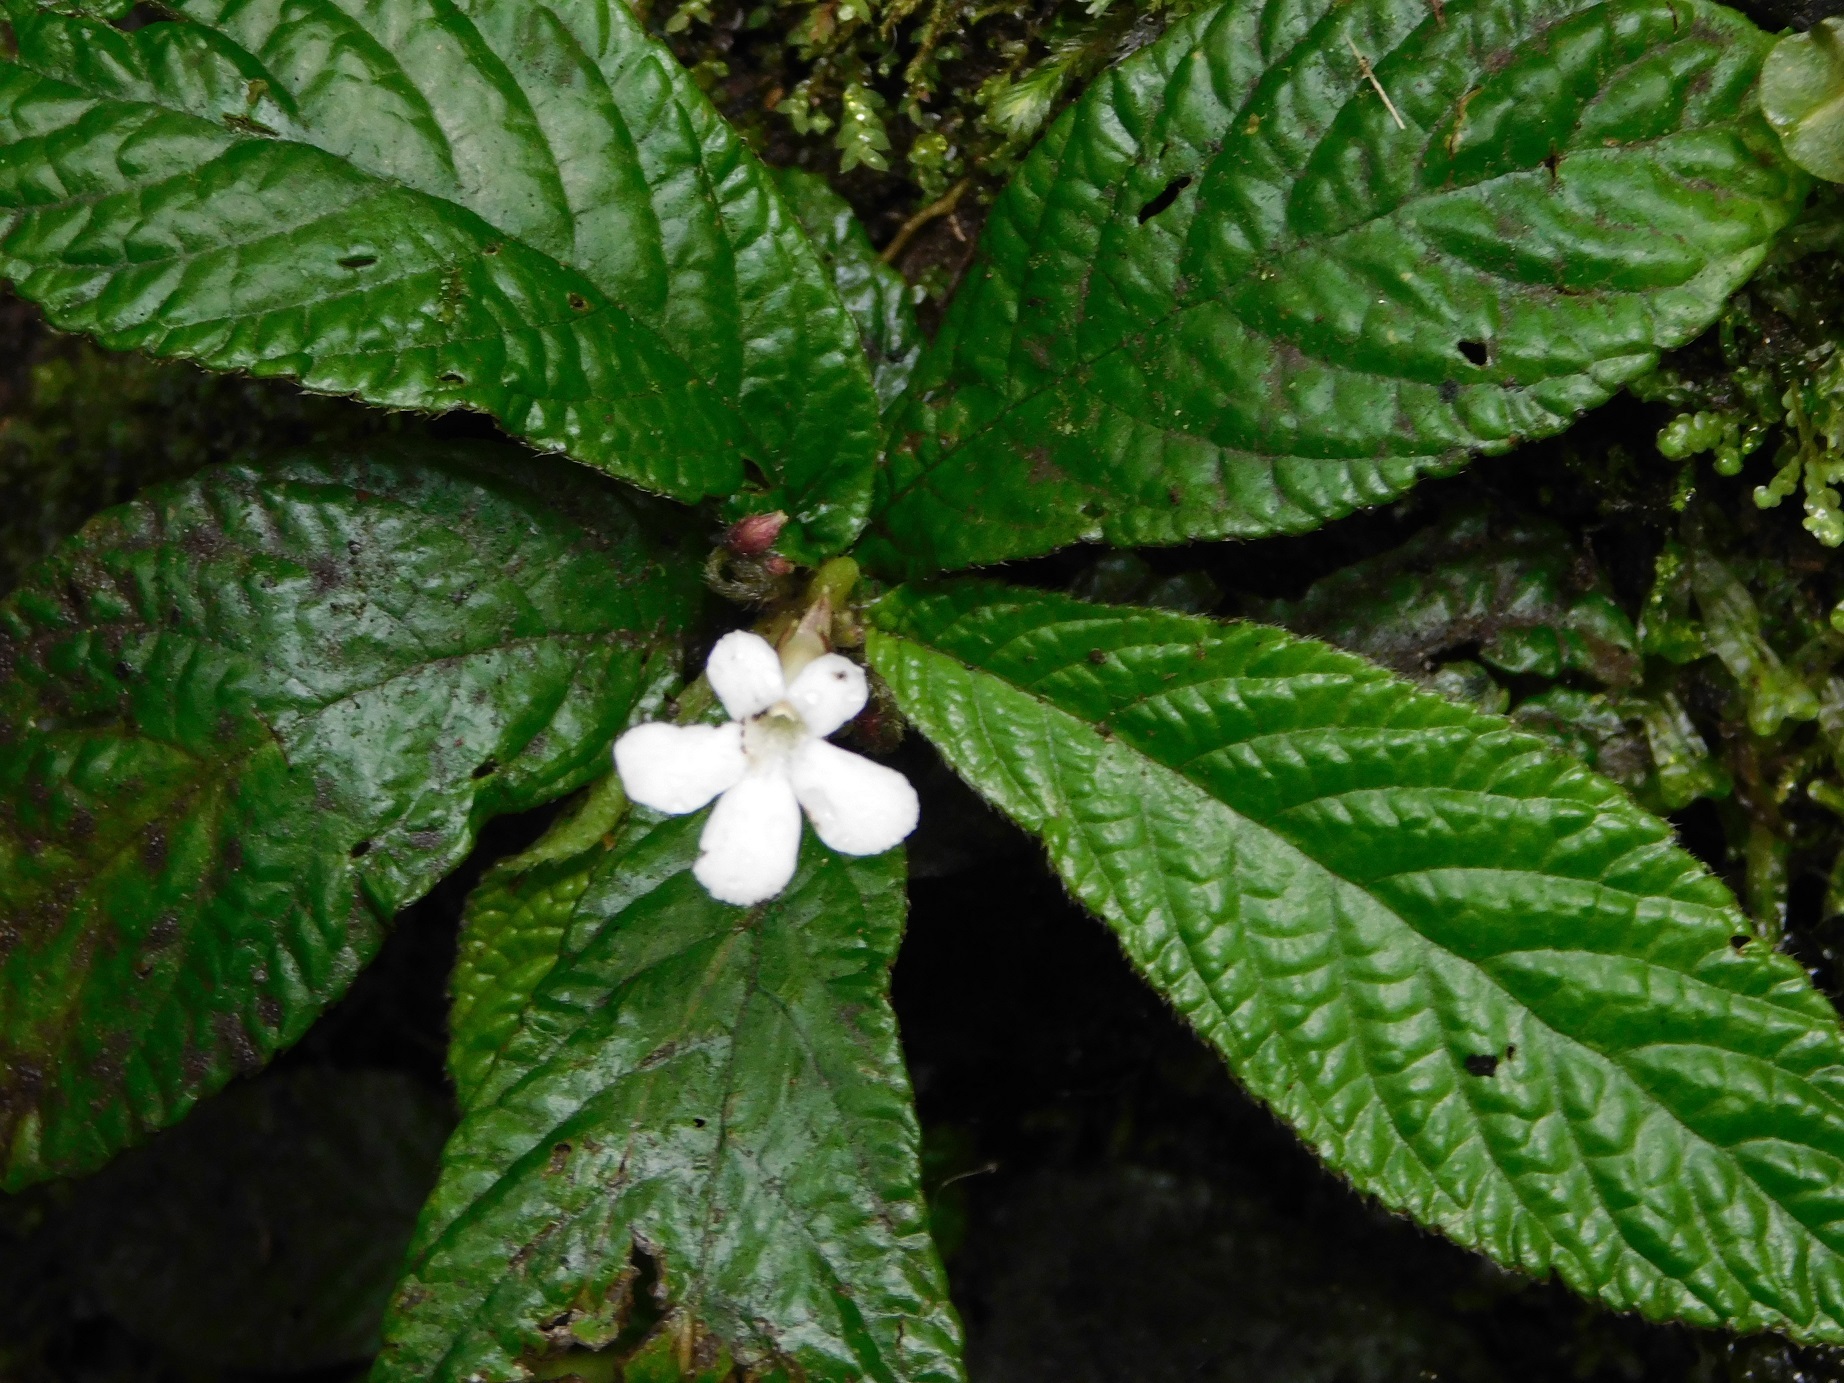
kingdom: Plantae
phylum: Tracheophyta
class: Magnoliopsida
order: Lamiales
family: Gesneriaceae
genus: Reldia
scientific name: Reldia minutiflora
